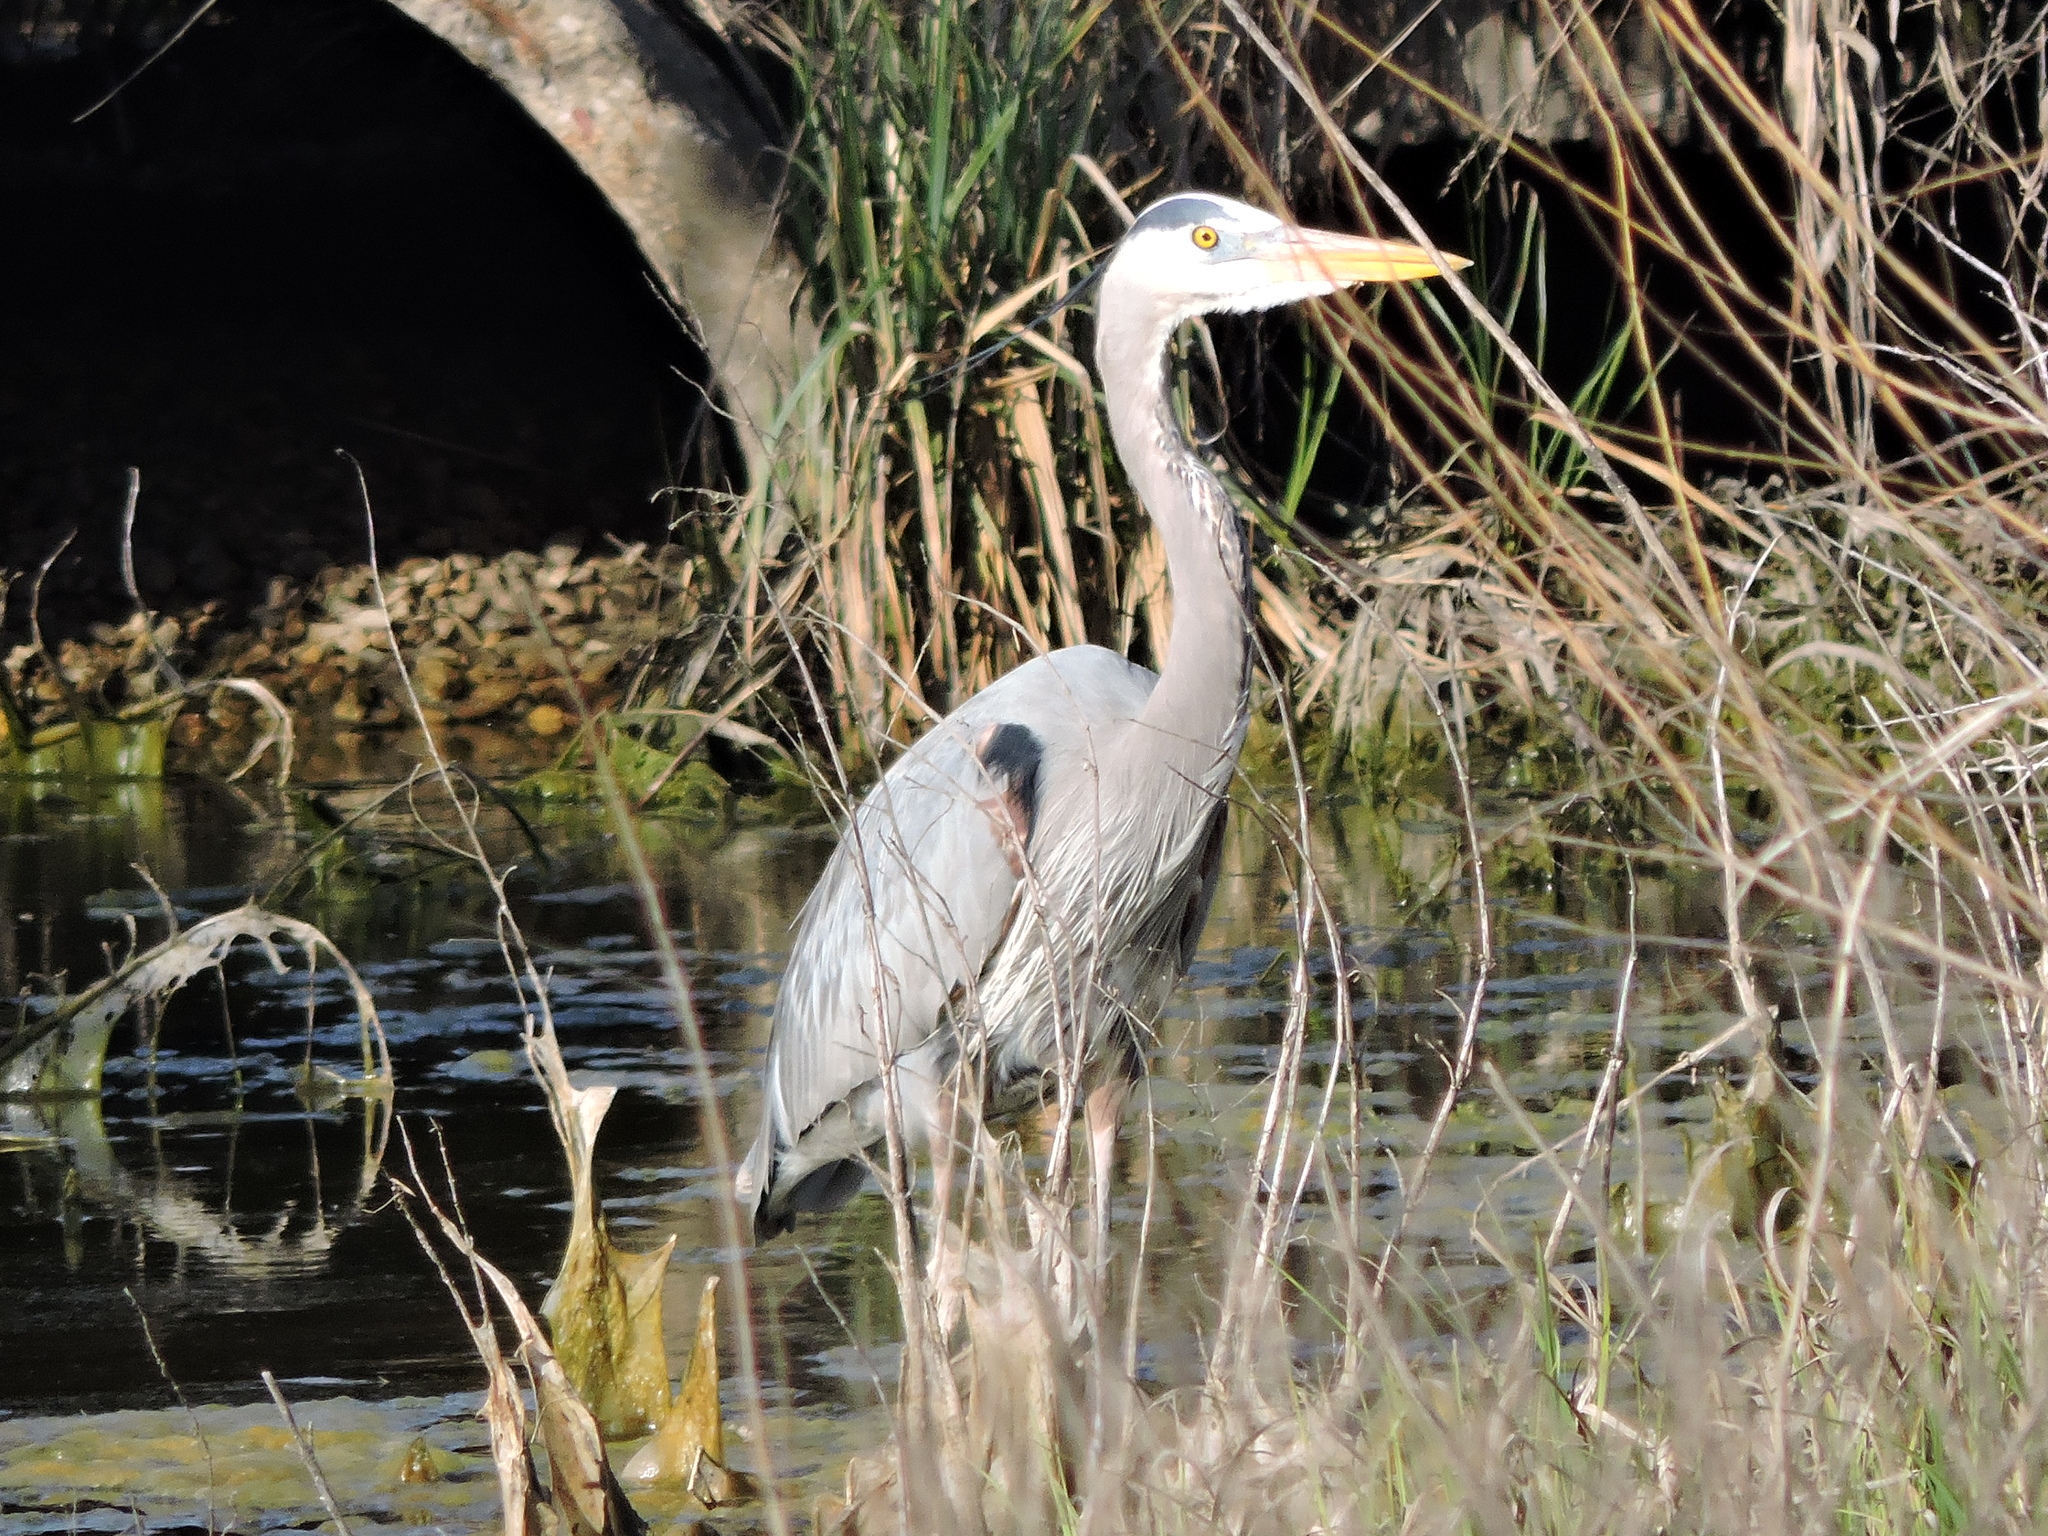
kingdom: Animalia
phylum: Chordata
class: Aves
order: Pelecaniformes
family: Ardeidae
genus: Ardea
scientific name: Ardea herodias
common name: Great blue heron
